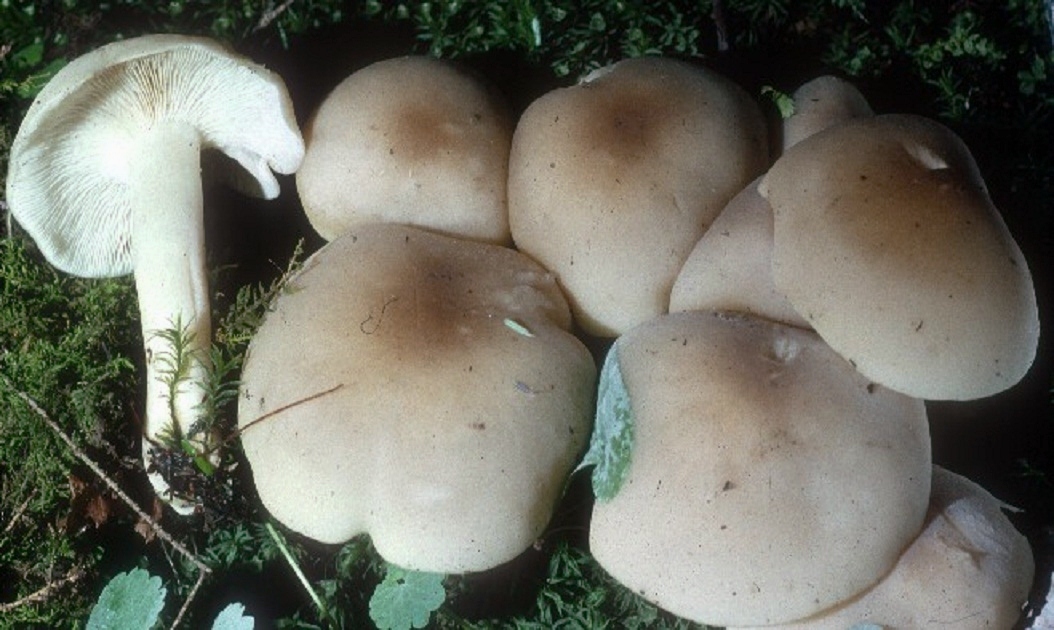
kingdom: Fungi
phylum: Basidiomycota
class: Agaricomycetes
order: Agaricales
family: Lyophyllaceae
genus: Lyophyllum
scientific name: Lyophyllum decastes
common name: Clustered domecap
